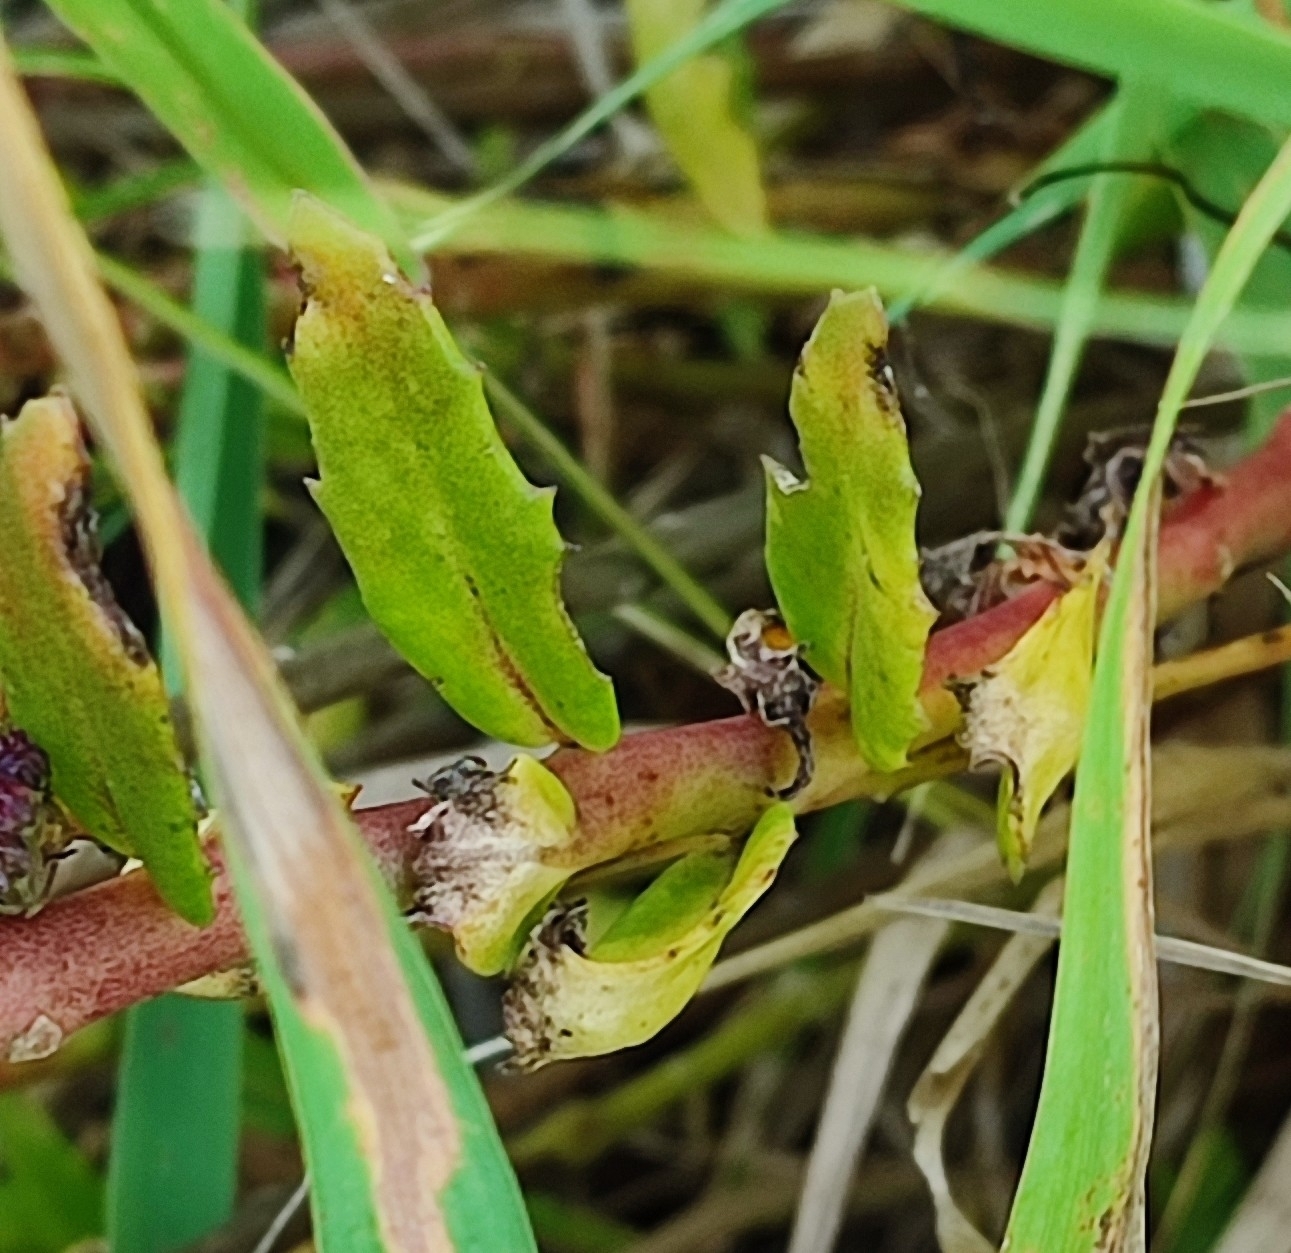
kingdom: Plantae
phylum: Tracheophyta
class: Magnoliopsida
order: Saxifragales
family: Crassulaceae
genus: Hylotelephium
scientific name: Hylotelephium telephium
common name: Live-forever
